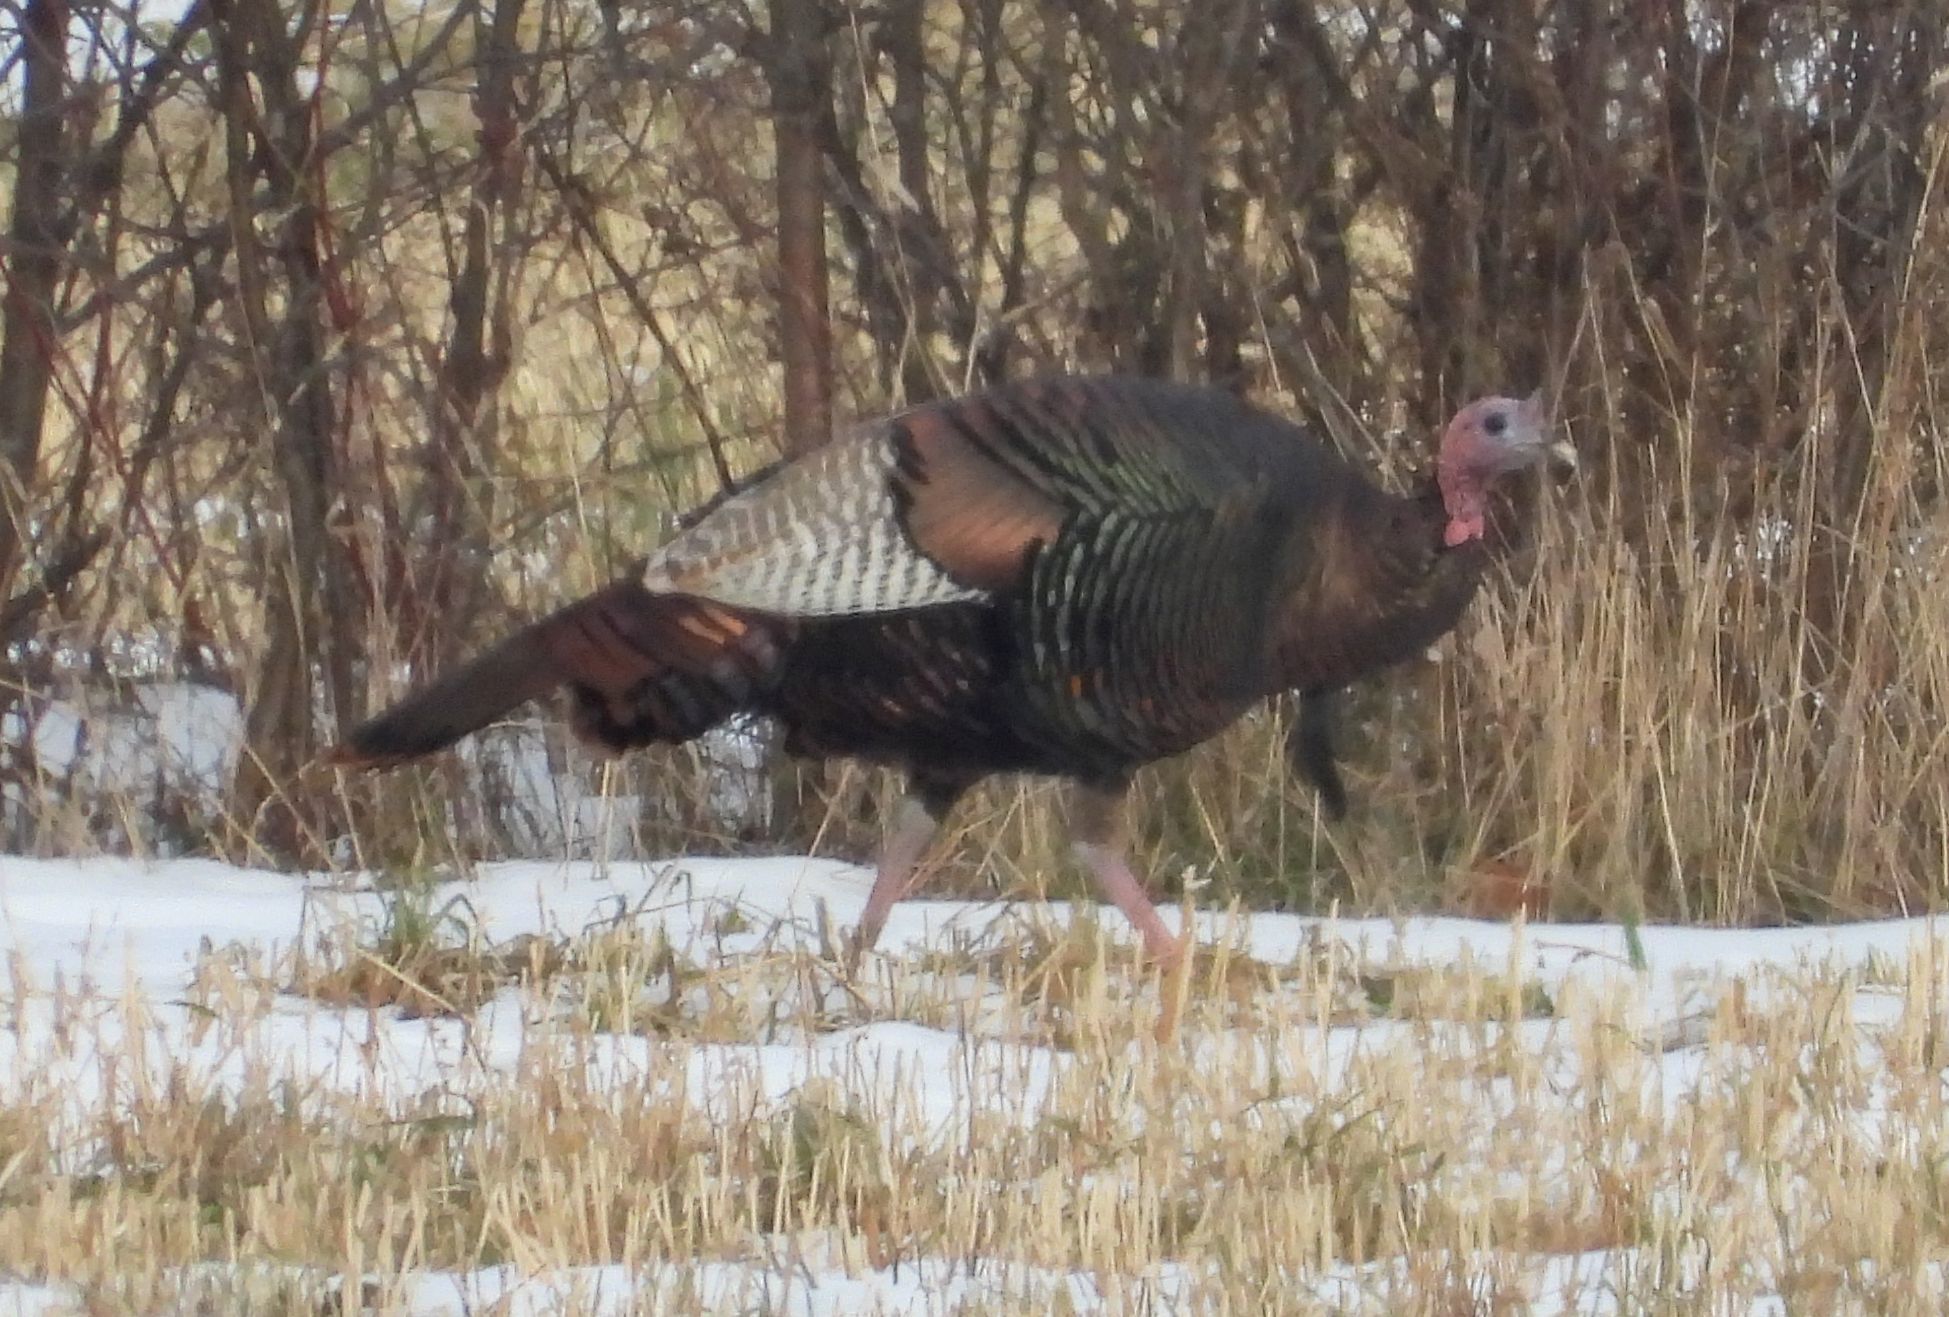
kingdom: Animalia
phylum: Chordata
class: Aves
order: Galliformes
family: Phasianidae
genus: Meleagris
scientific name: Meleagris gallopavo
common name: Wild turkey
